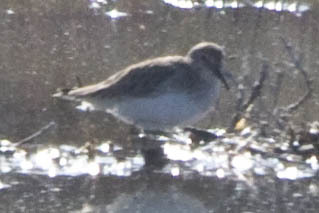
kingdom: Animalia
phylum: Chordata
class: Aves
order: Charadriiformes
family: Scolopacidae
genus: Calidris
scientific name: Calidris minutilla
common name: Least sandpiper
